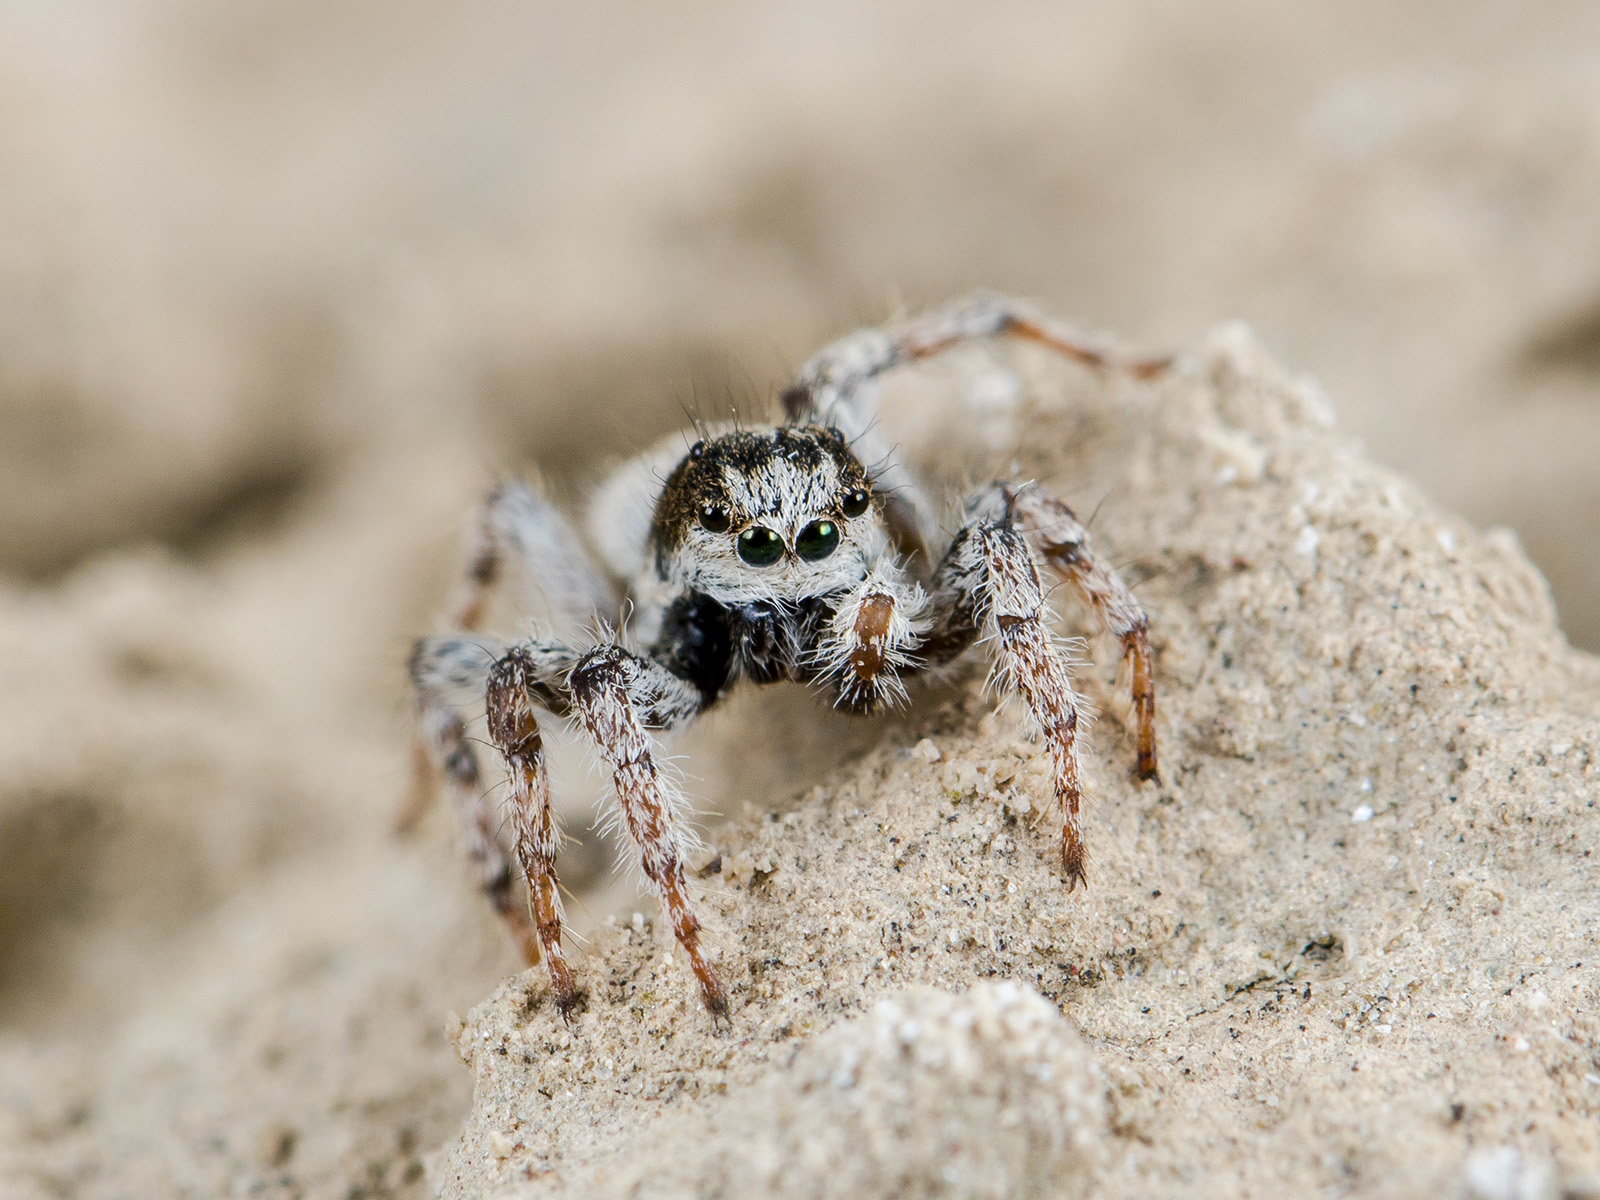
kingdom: Animalia
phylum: Arthropoda
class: Arachnida
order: Araneae
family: Salticidae
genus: Aelurillus
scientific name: Aelurillus concolor
